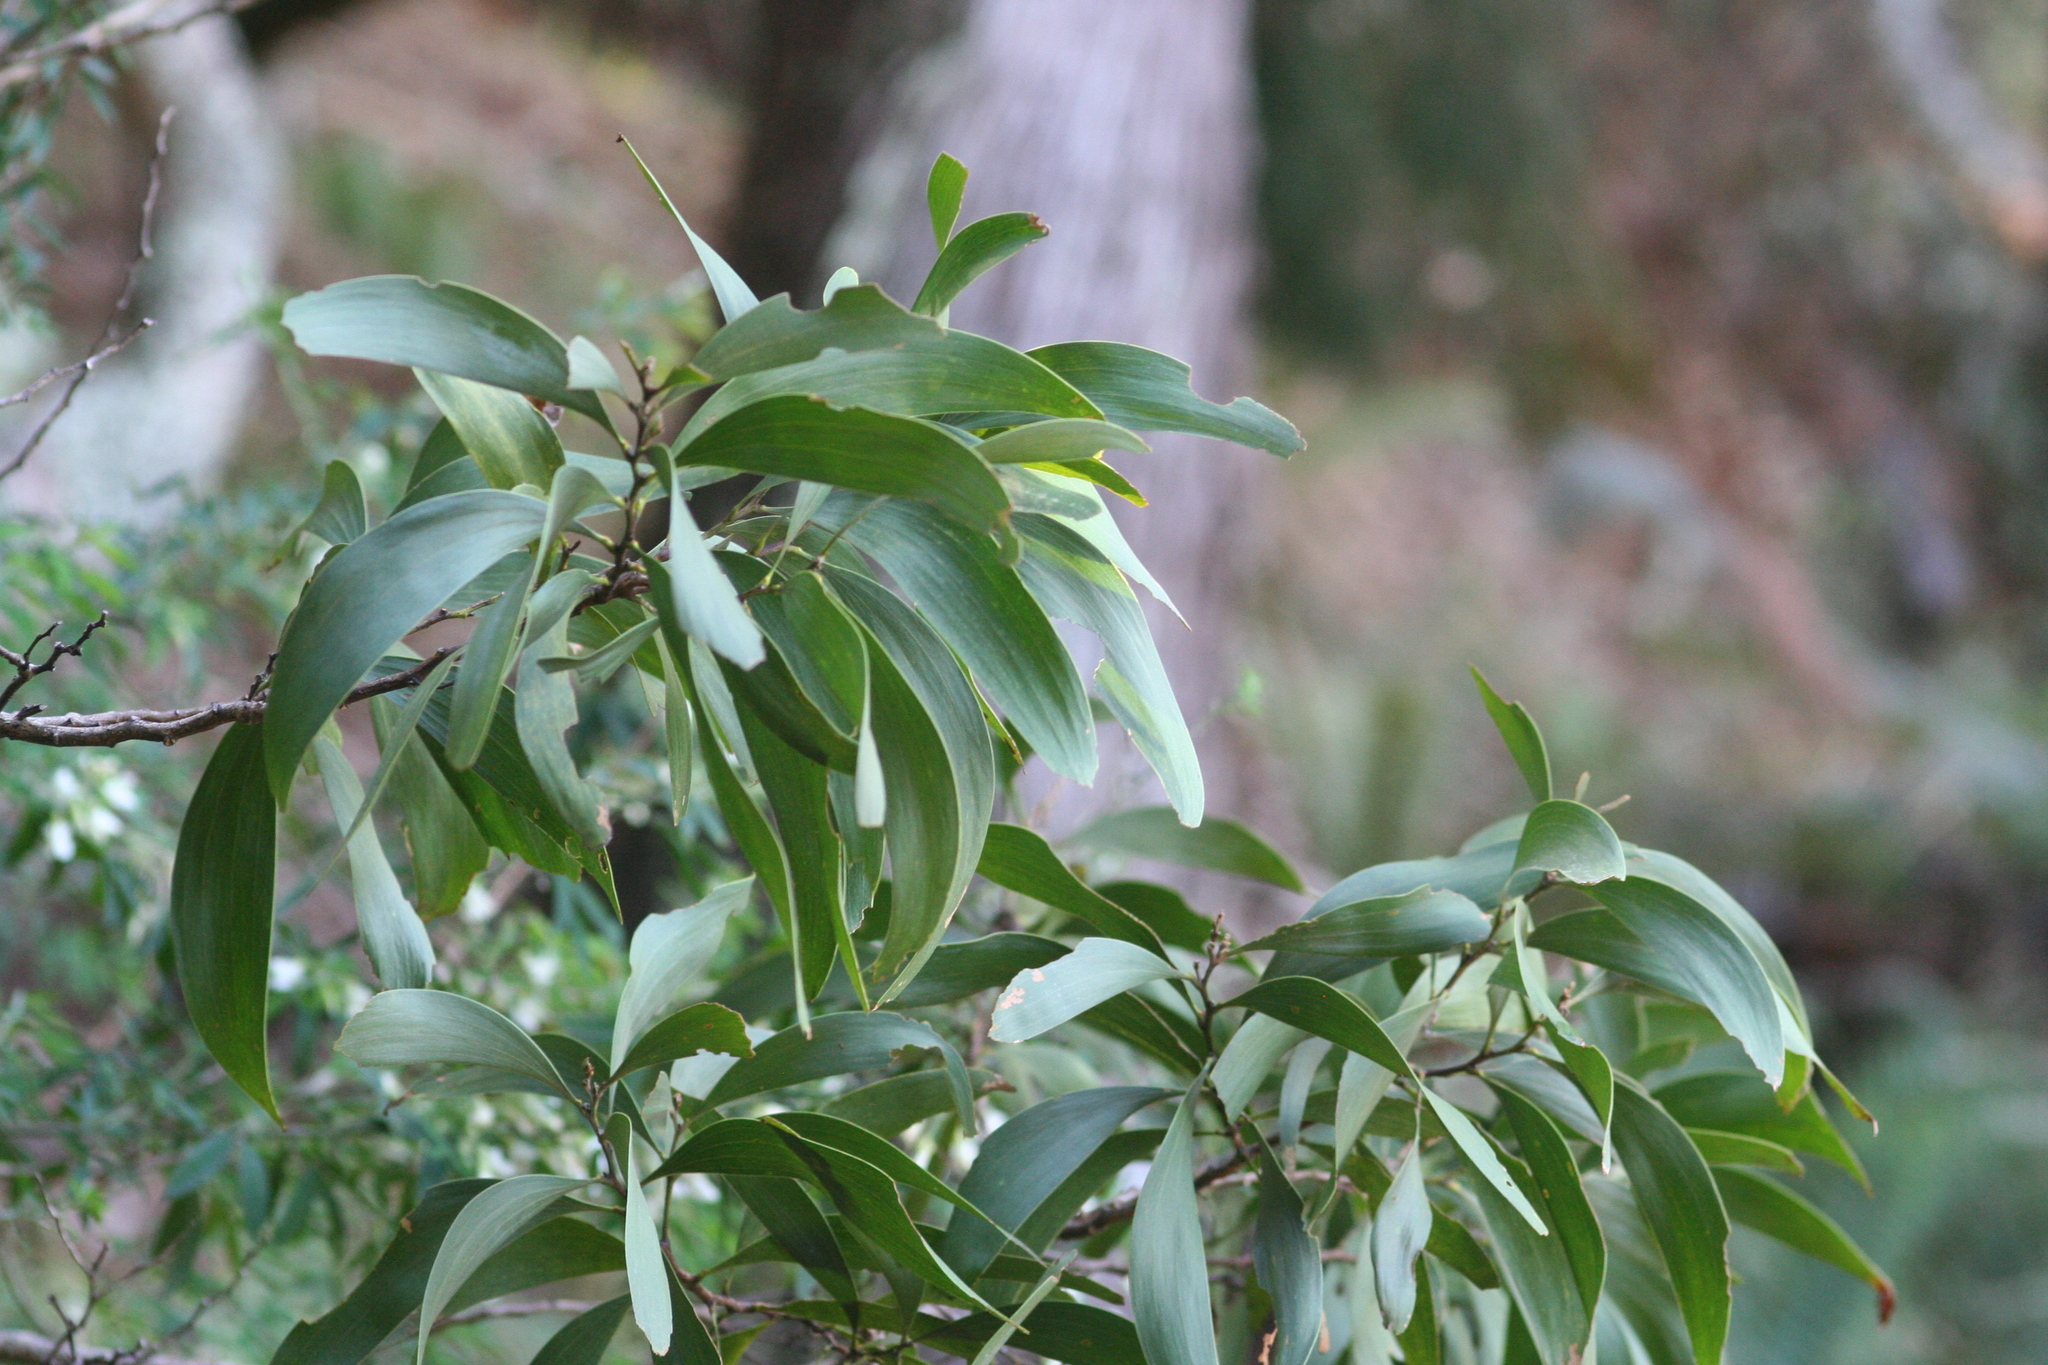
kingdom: Plantae
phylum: Tracheophyta
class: Magnoliopsida
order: Fabales
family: Fabaceae
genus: Acacia
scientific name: Acacia koa
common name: Gray koa
